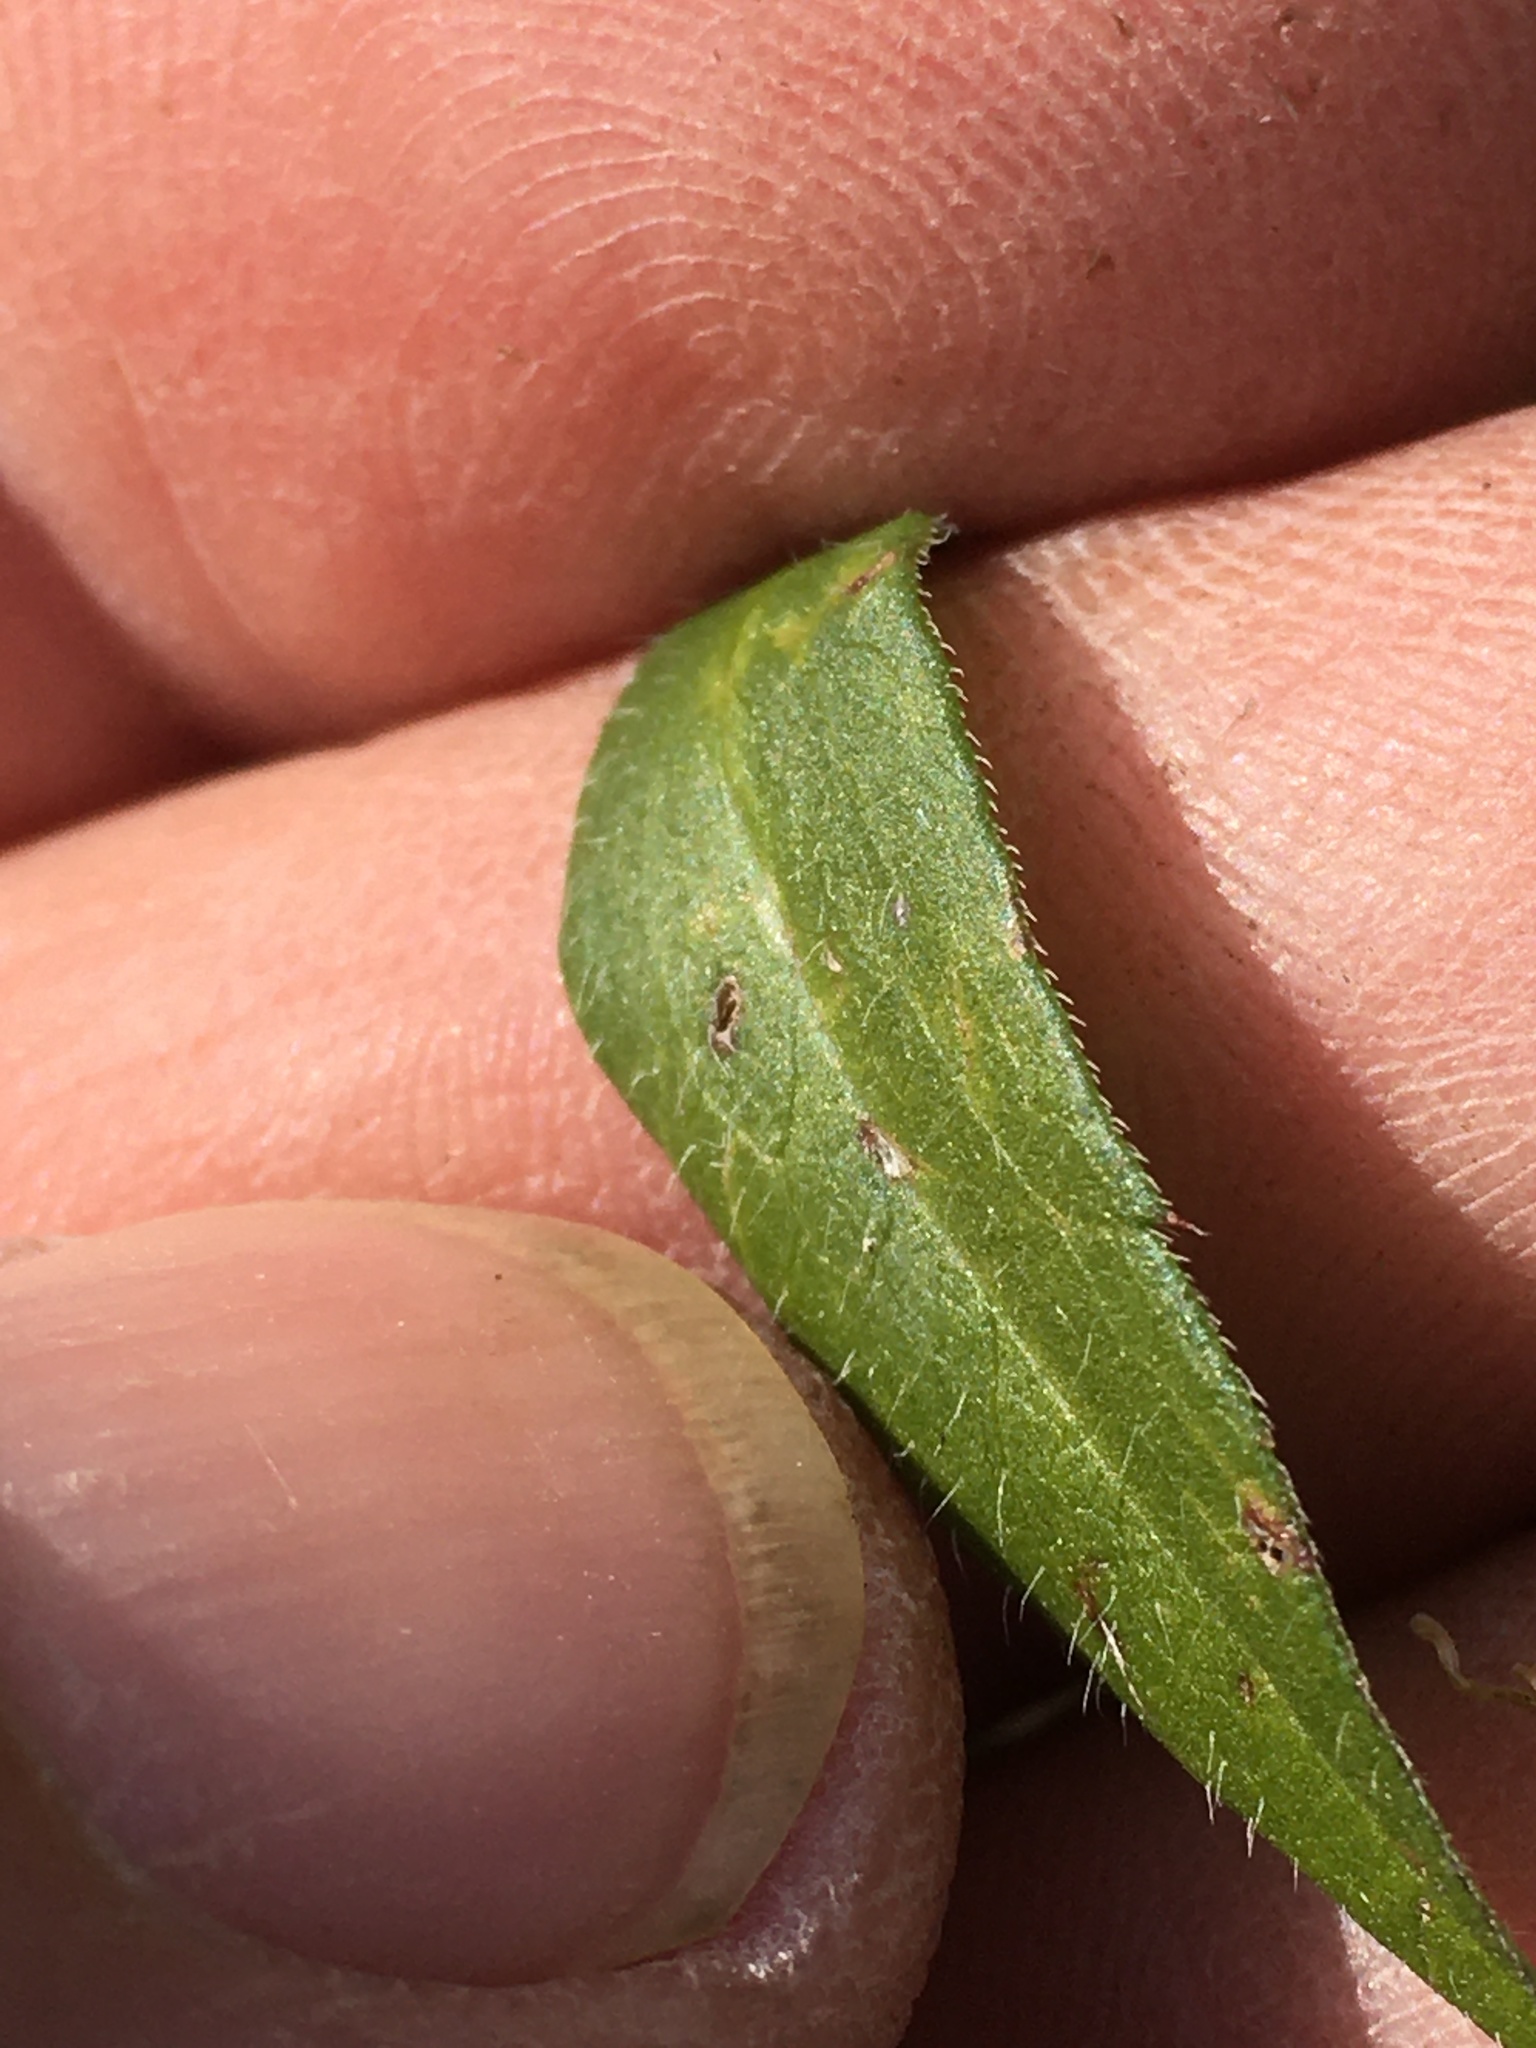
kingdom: Plantae
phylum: Tracheophyta
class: Magnoliopsida
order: Asterales
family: Asteraceae
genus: Symphyotrichum
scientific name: Symphyotrichum pilosum
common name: Awl aster
